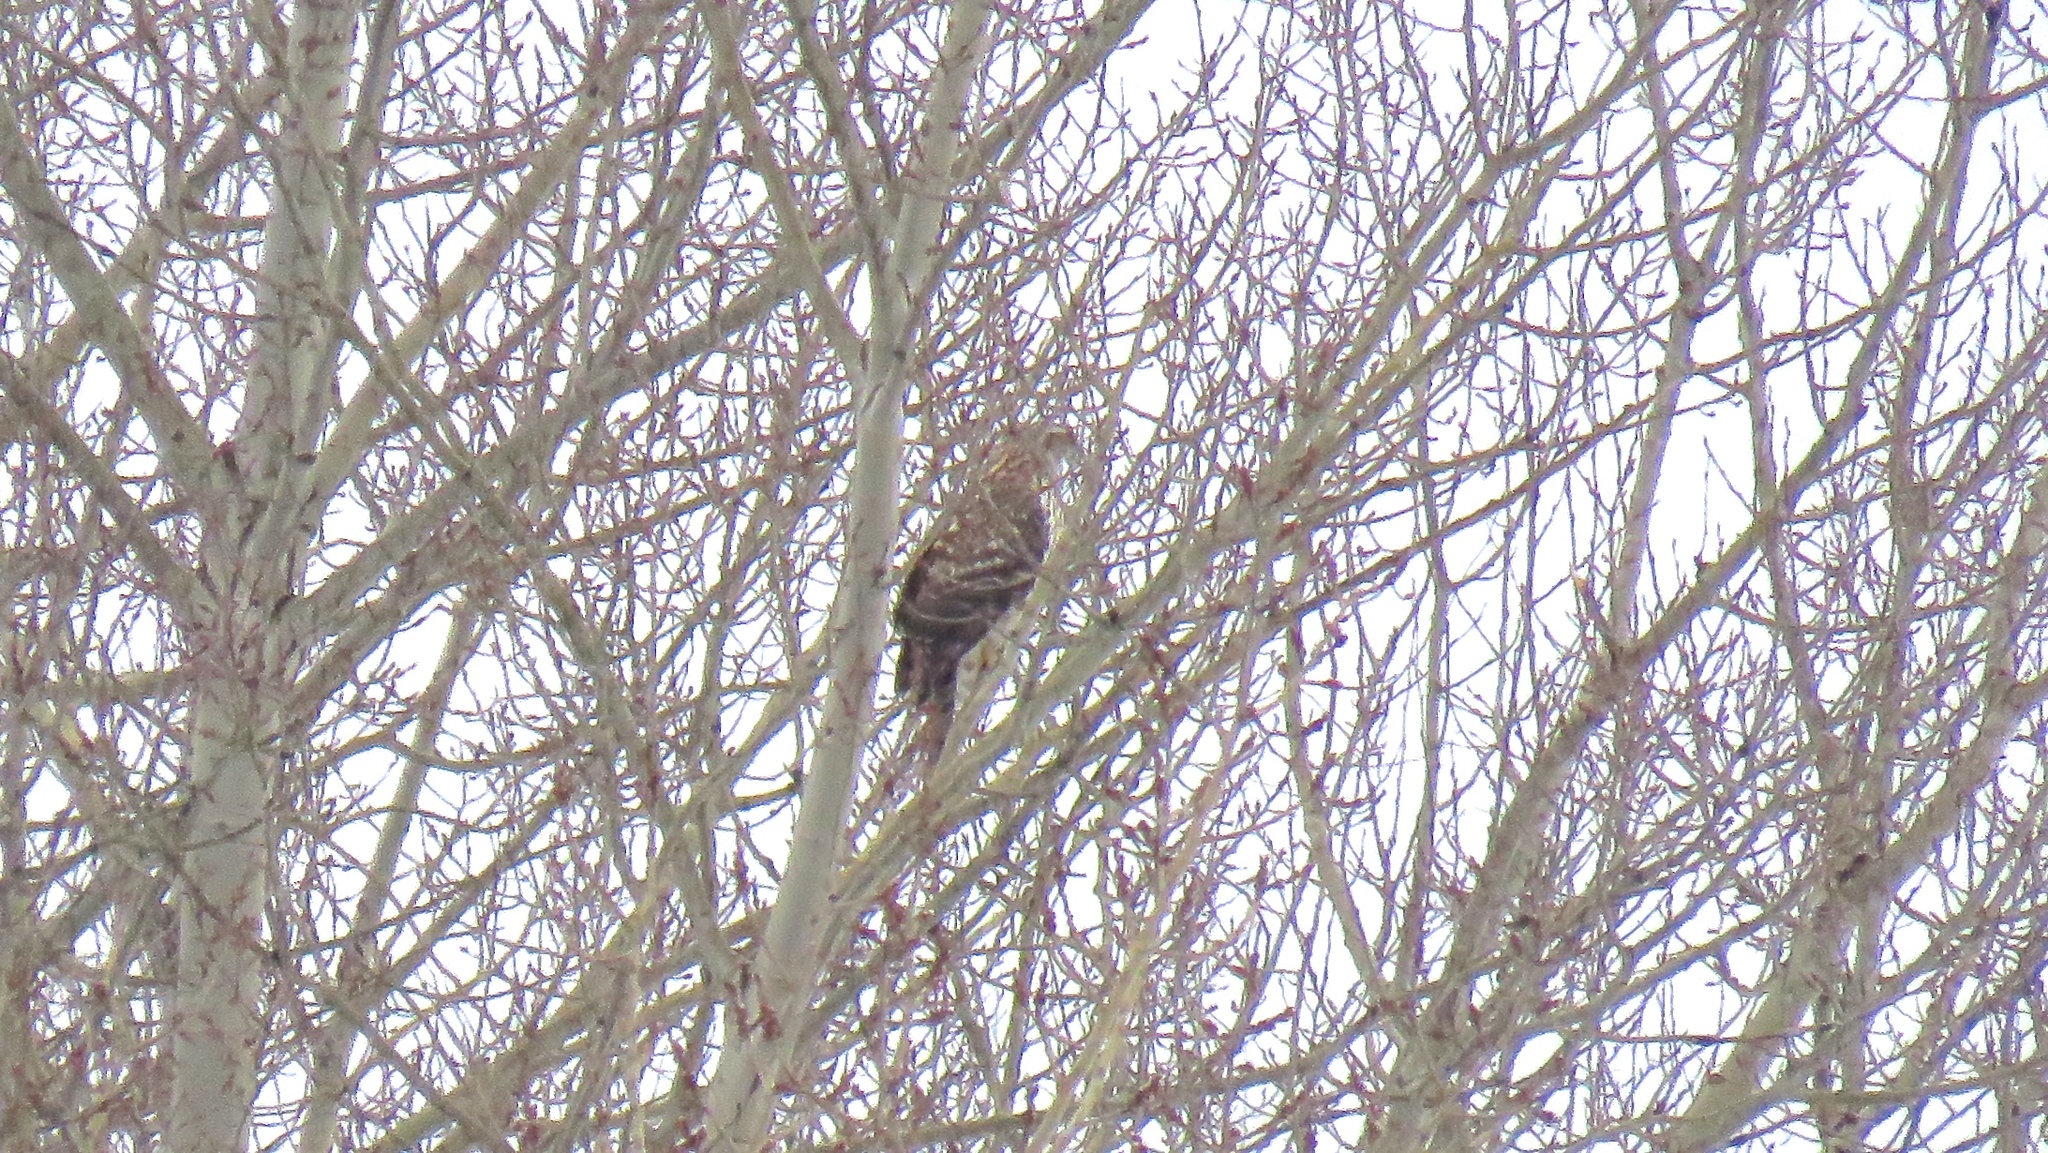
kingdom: Animalia
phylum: Chordata
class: Aves
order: Accipitriformes
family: Accipitridae
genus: Accipiter
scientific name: Accipiter gentilis
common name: Northern goshawk
